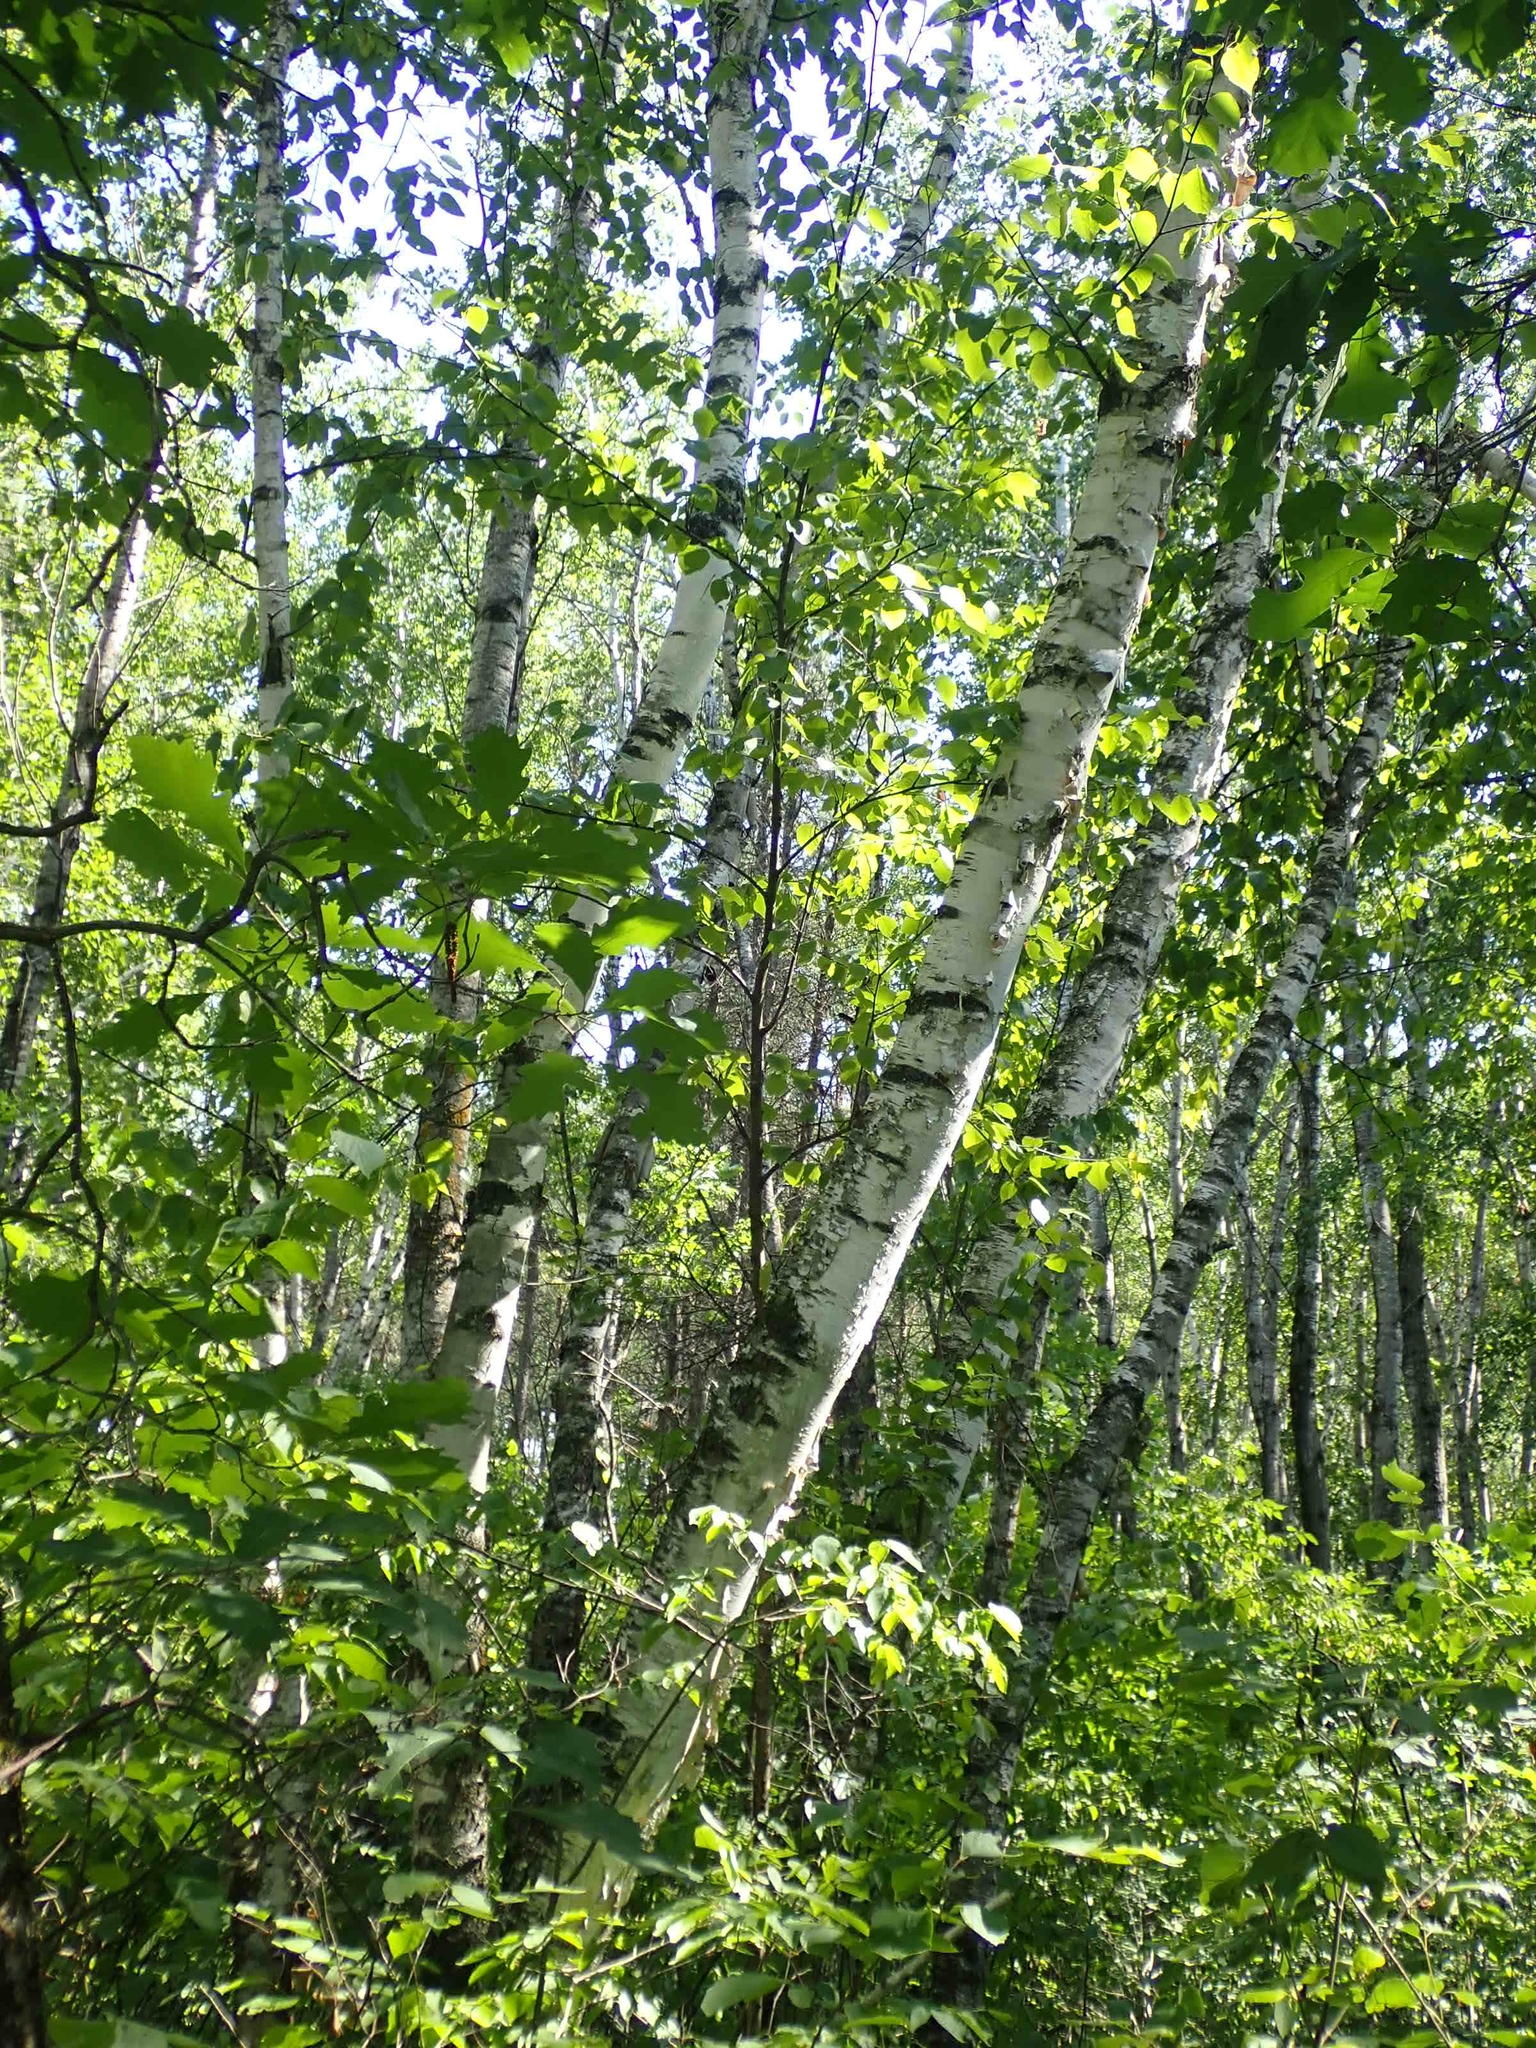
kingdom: Plantae
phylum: Tracheophyta
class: Magnoliopsida
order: Fagales
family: Betulaceae
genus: Betula
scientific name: Betula papyrifera
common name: Paper birch
